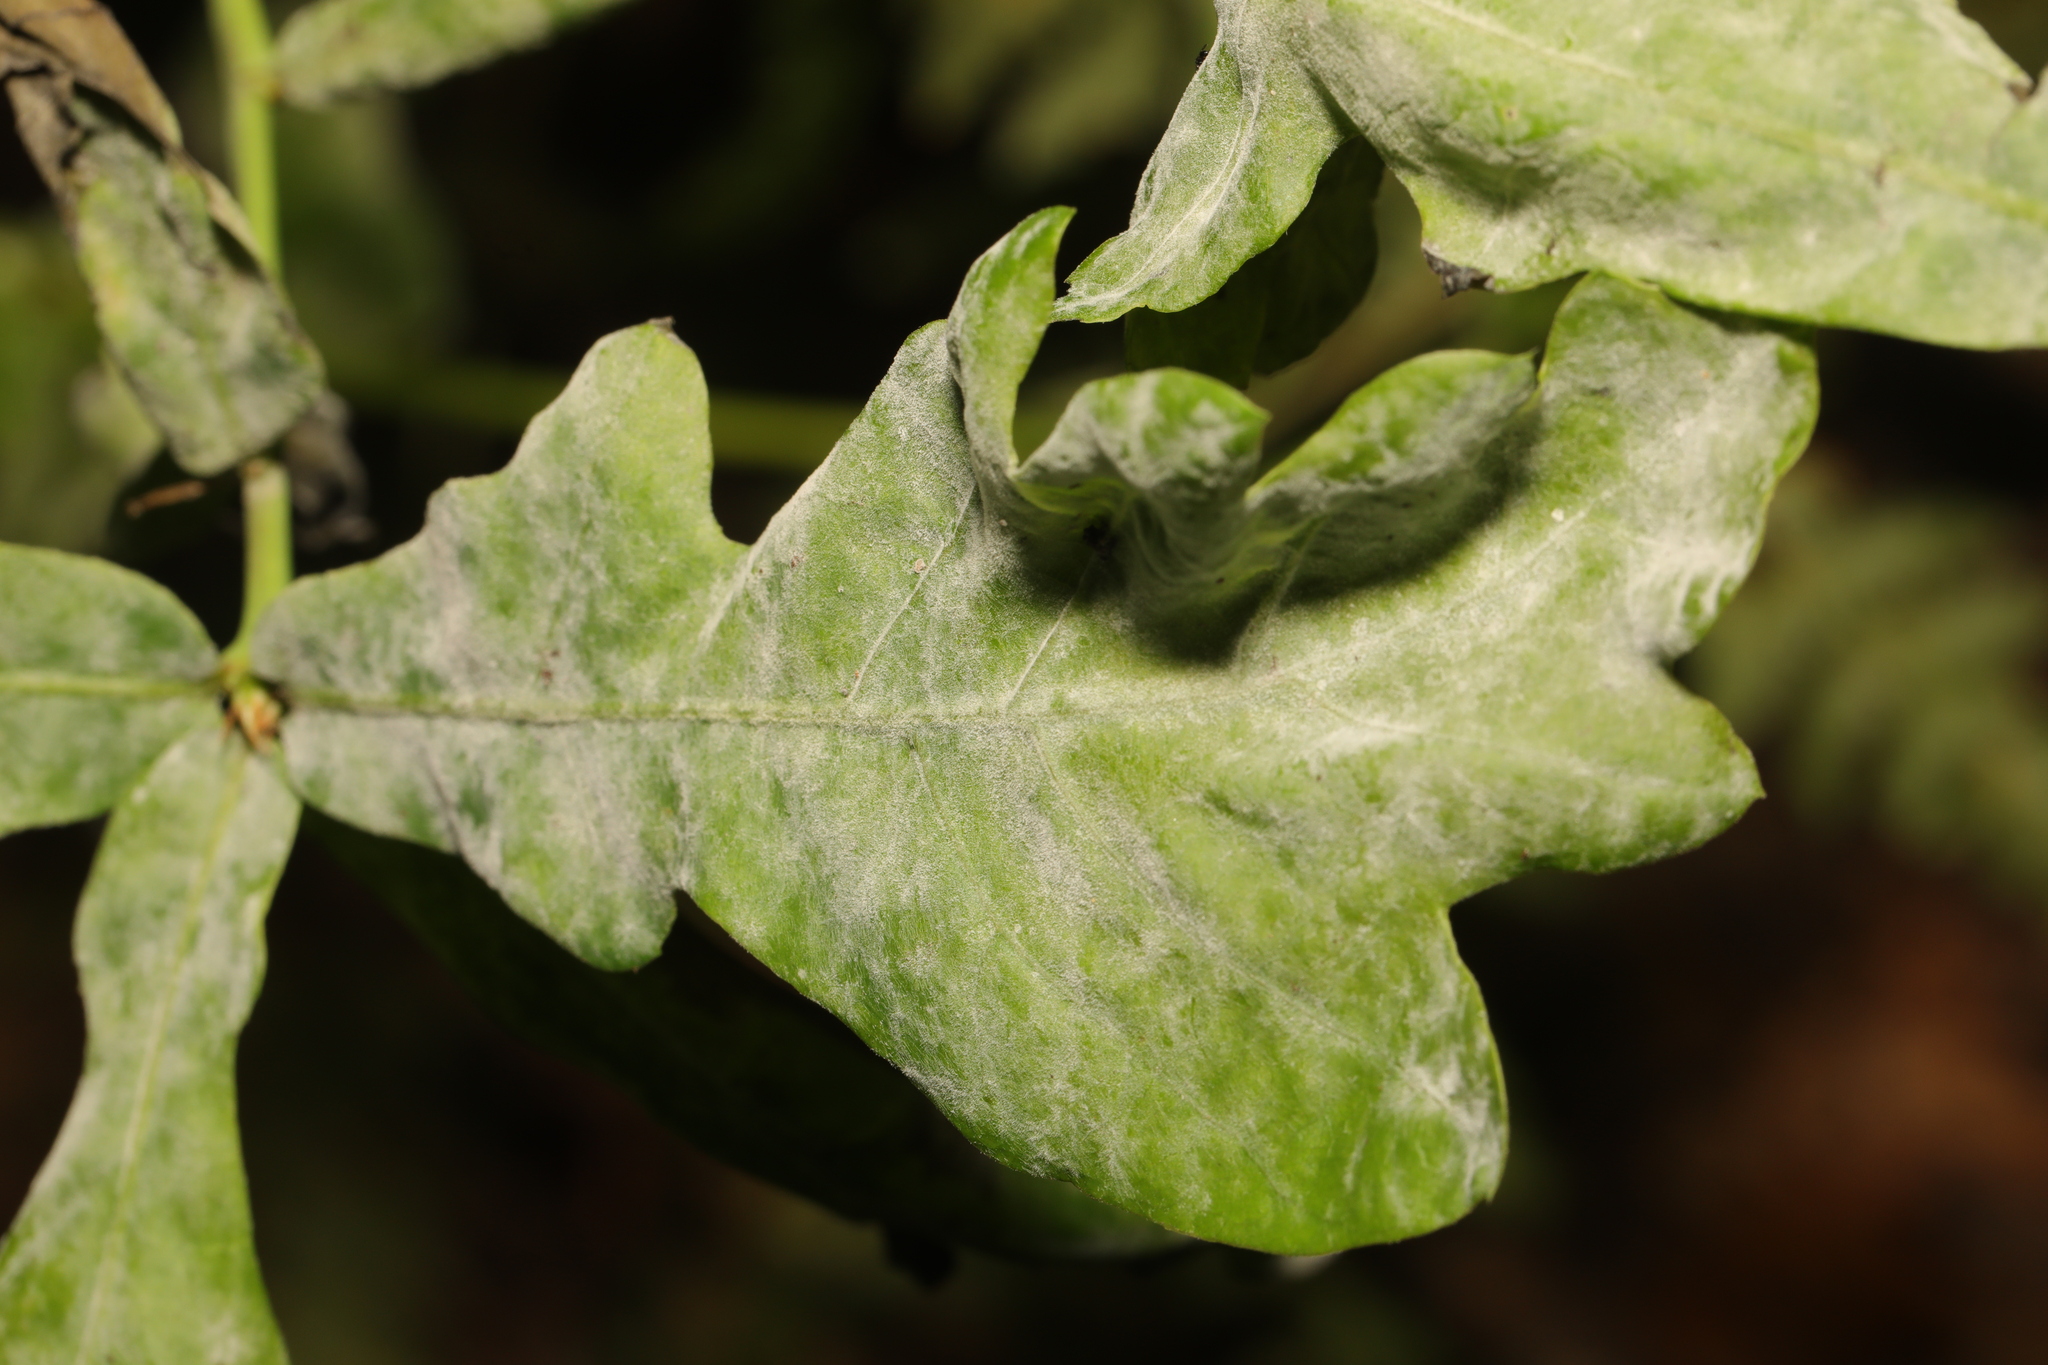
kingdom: Plantae
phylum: Tracheophyta
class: Magnoliopsida
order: Fagales
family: Fagaceae
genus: Quercus
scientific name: Quercus robur
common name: Pedunculate oak
